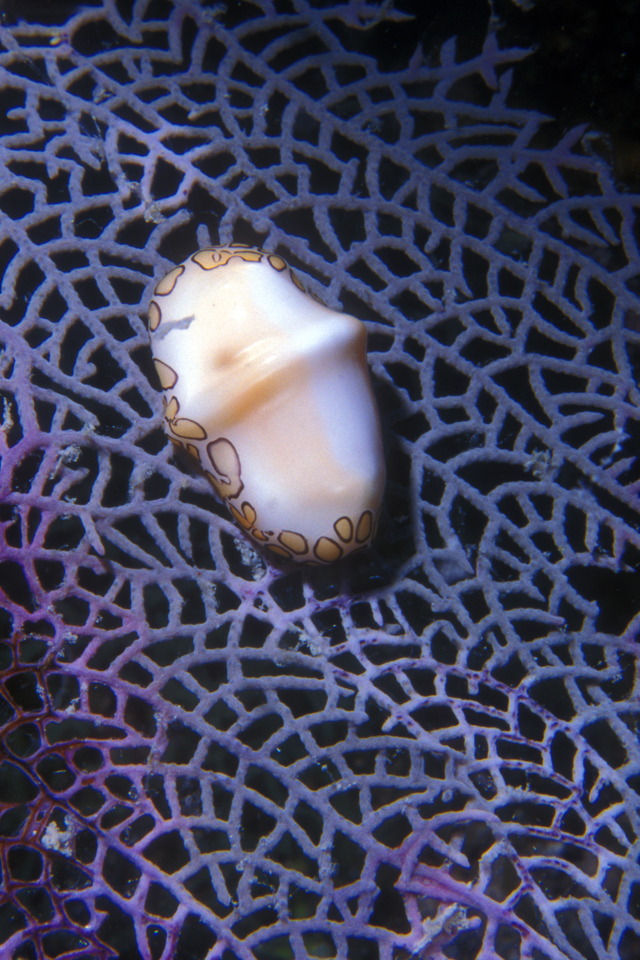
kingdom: Animalia
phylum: Mollusca
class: Gastropoda
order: Littorinimorpha
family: Ovulidae
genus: Cyphoma
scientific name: Cyphoma gibbosum
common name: Flamingo tongue
